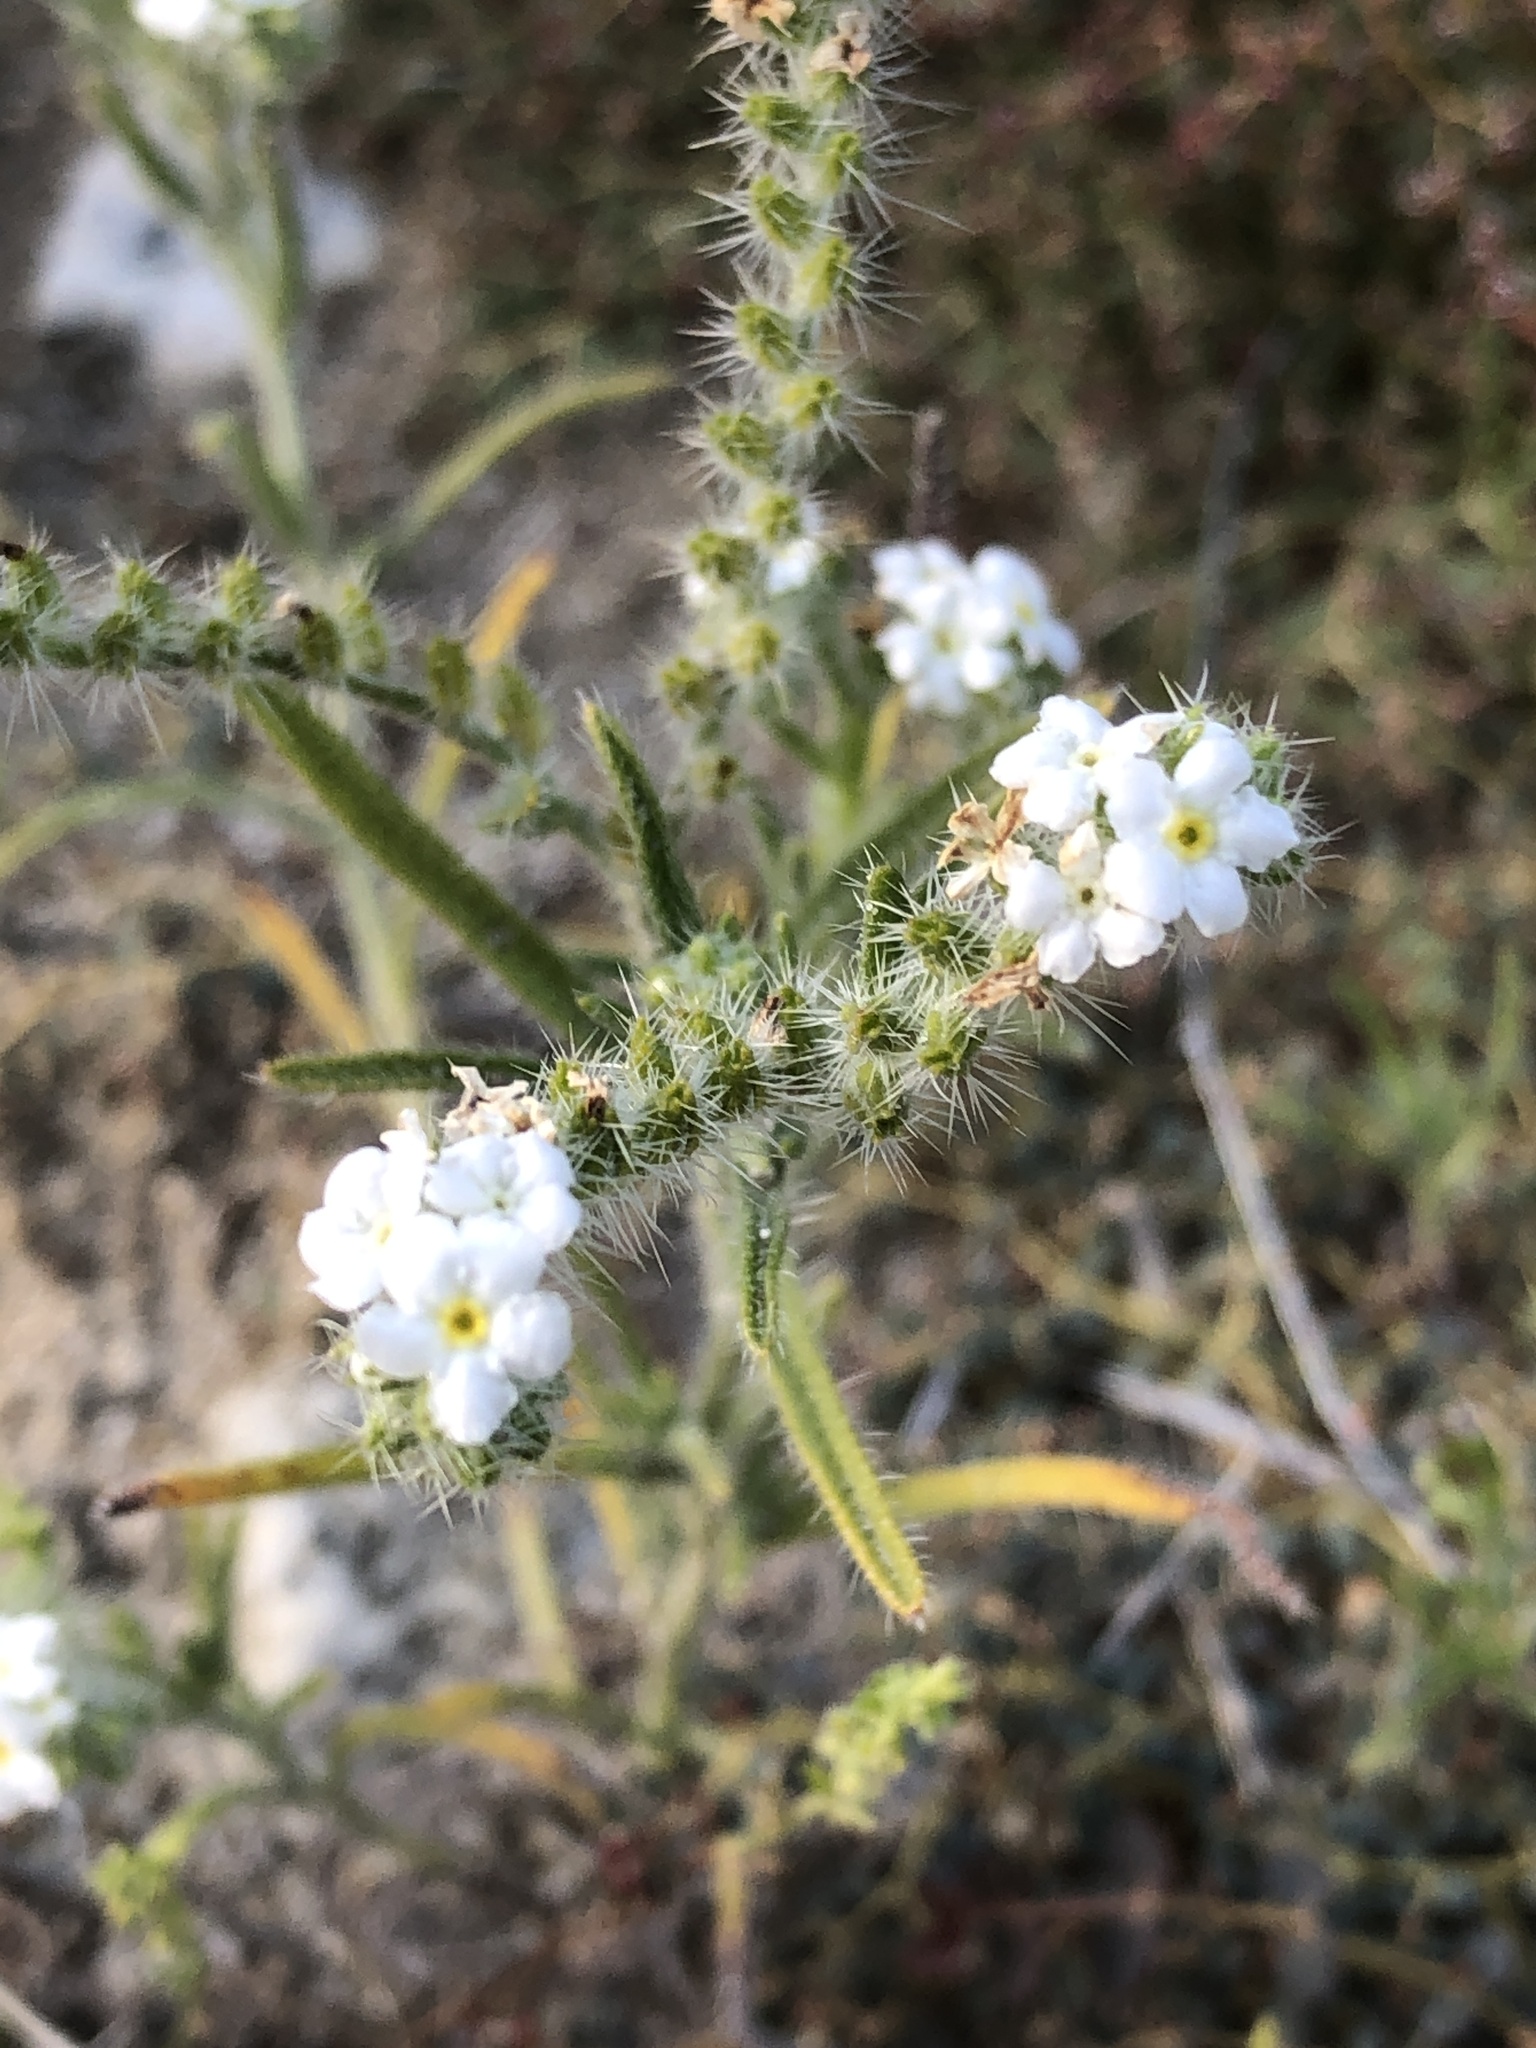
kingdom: Plantae
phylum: Tracheophyta
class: Magnoliopsida
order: Boraginales
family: Boraginaceae
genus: Johnstonella
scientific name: Johnstonella angustifolia
